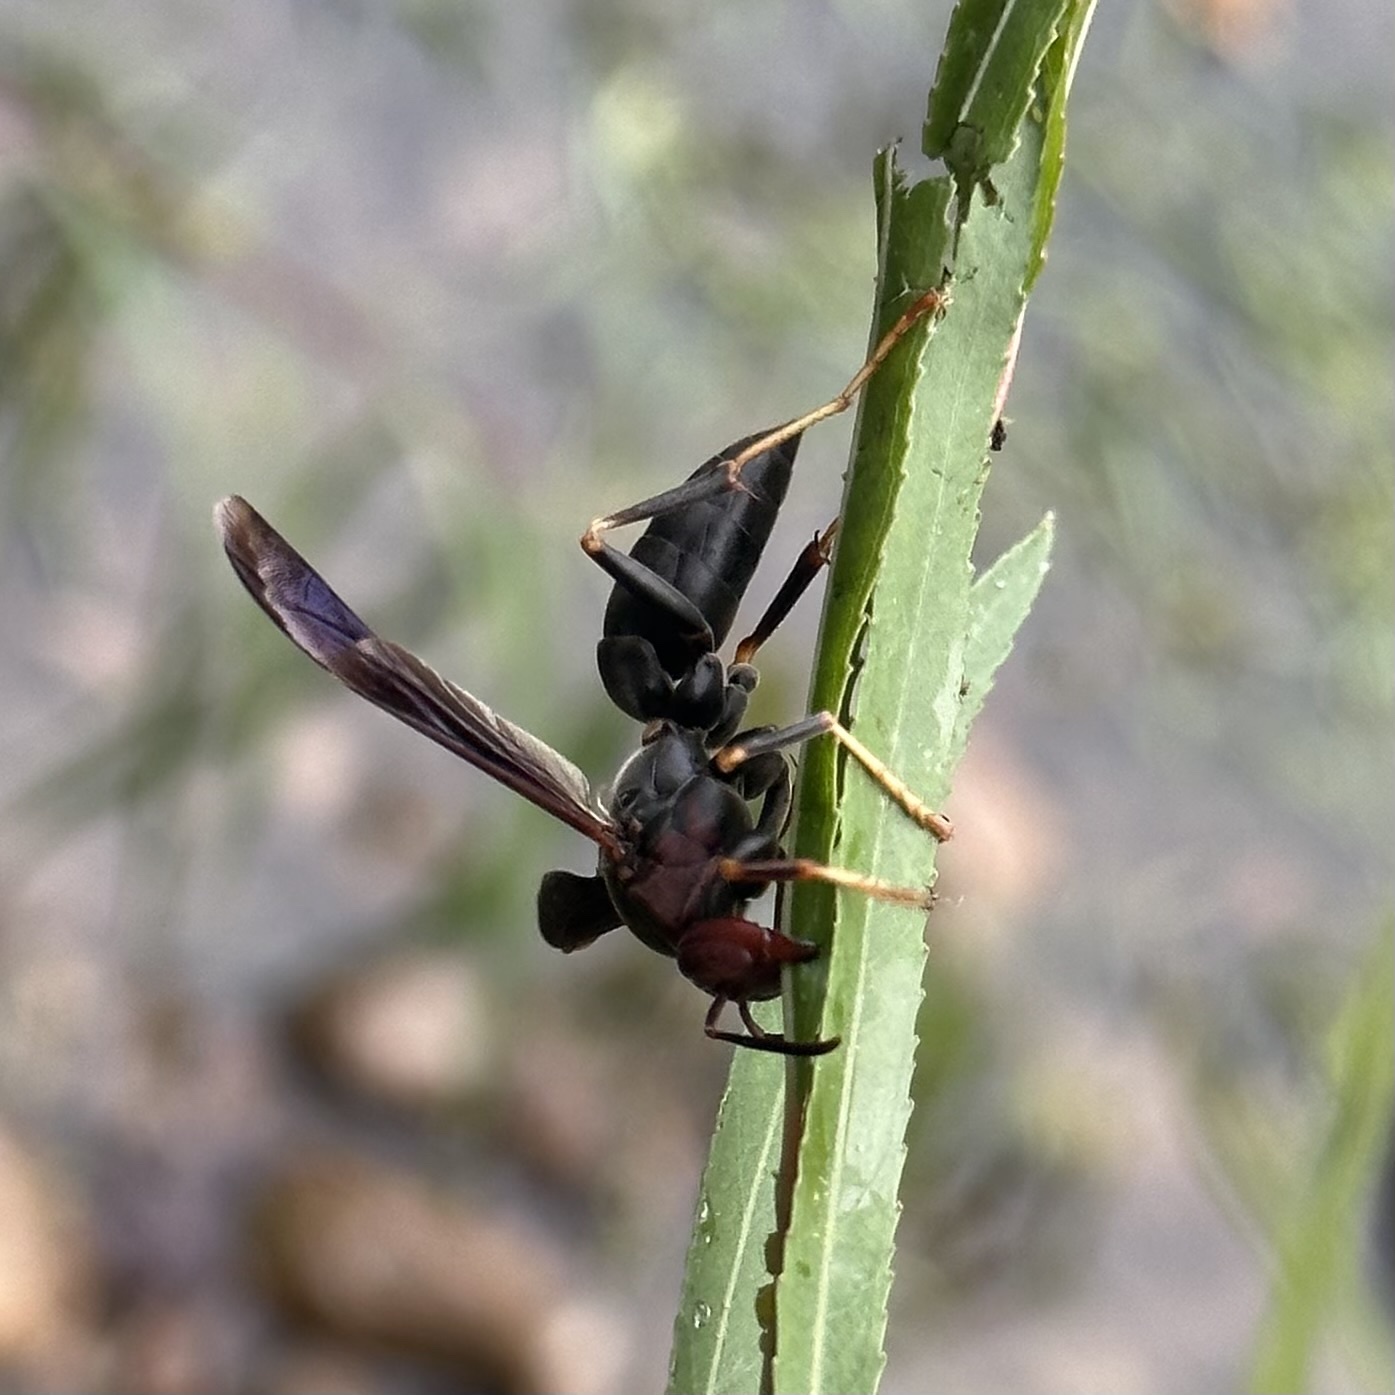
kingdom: Animalia
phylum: Arthropoda
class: Insecta
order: Hymenoptera
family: Eumenidae
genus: Polistes
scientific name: Polistes metricus
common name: Metric paper wasp
